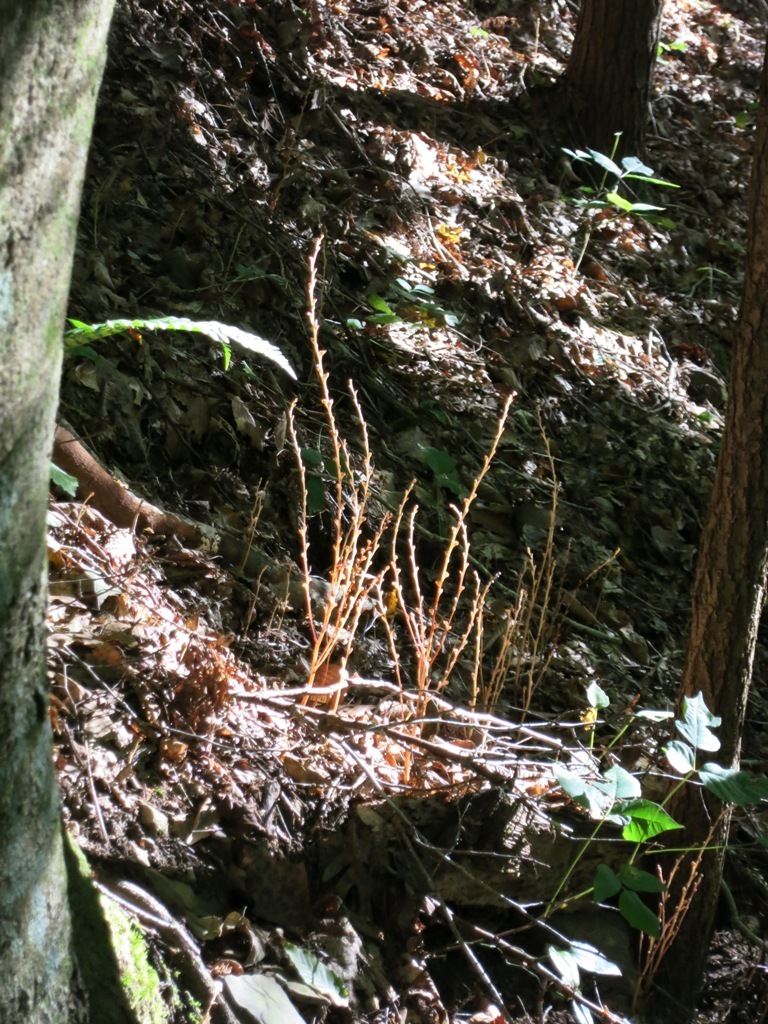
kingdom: Plantae
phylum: Tracheophyta
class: Magnoliopsida
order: Lamiales
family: Orobanchaceae
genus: Epifagus
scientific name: Epifagus virginiana
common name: Beechdrops
